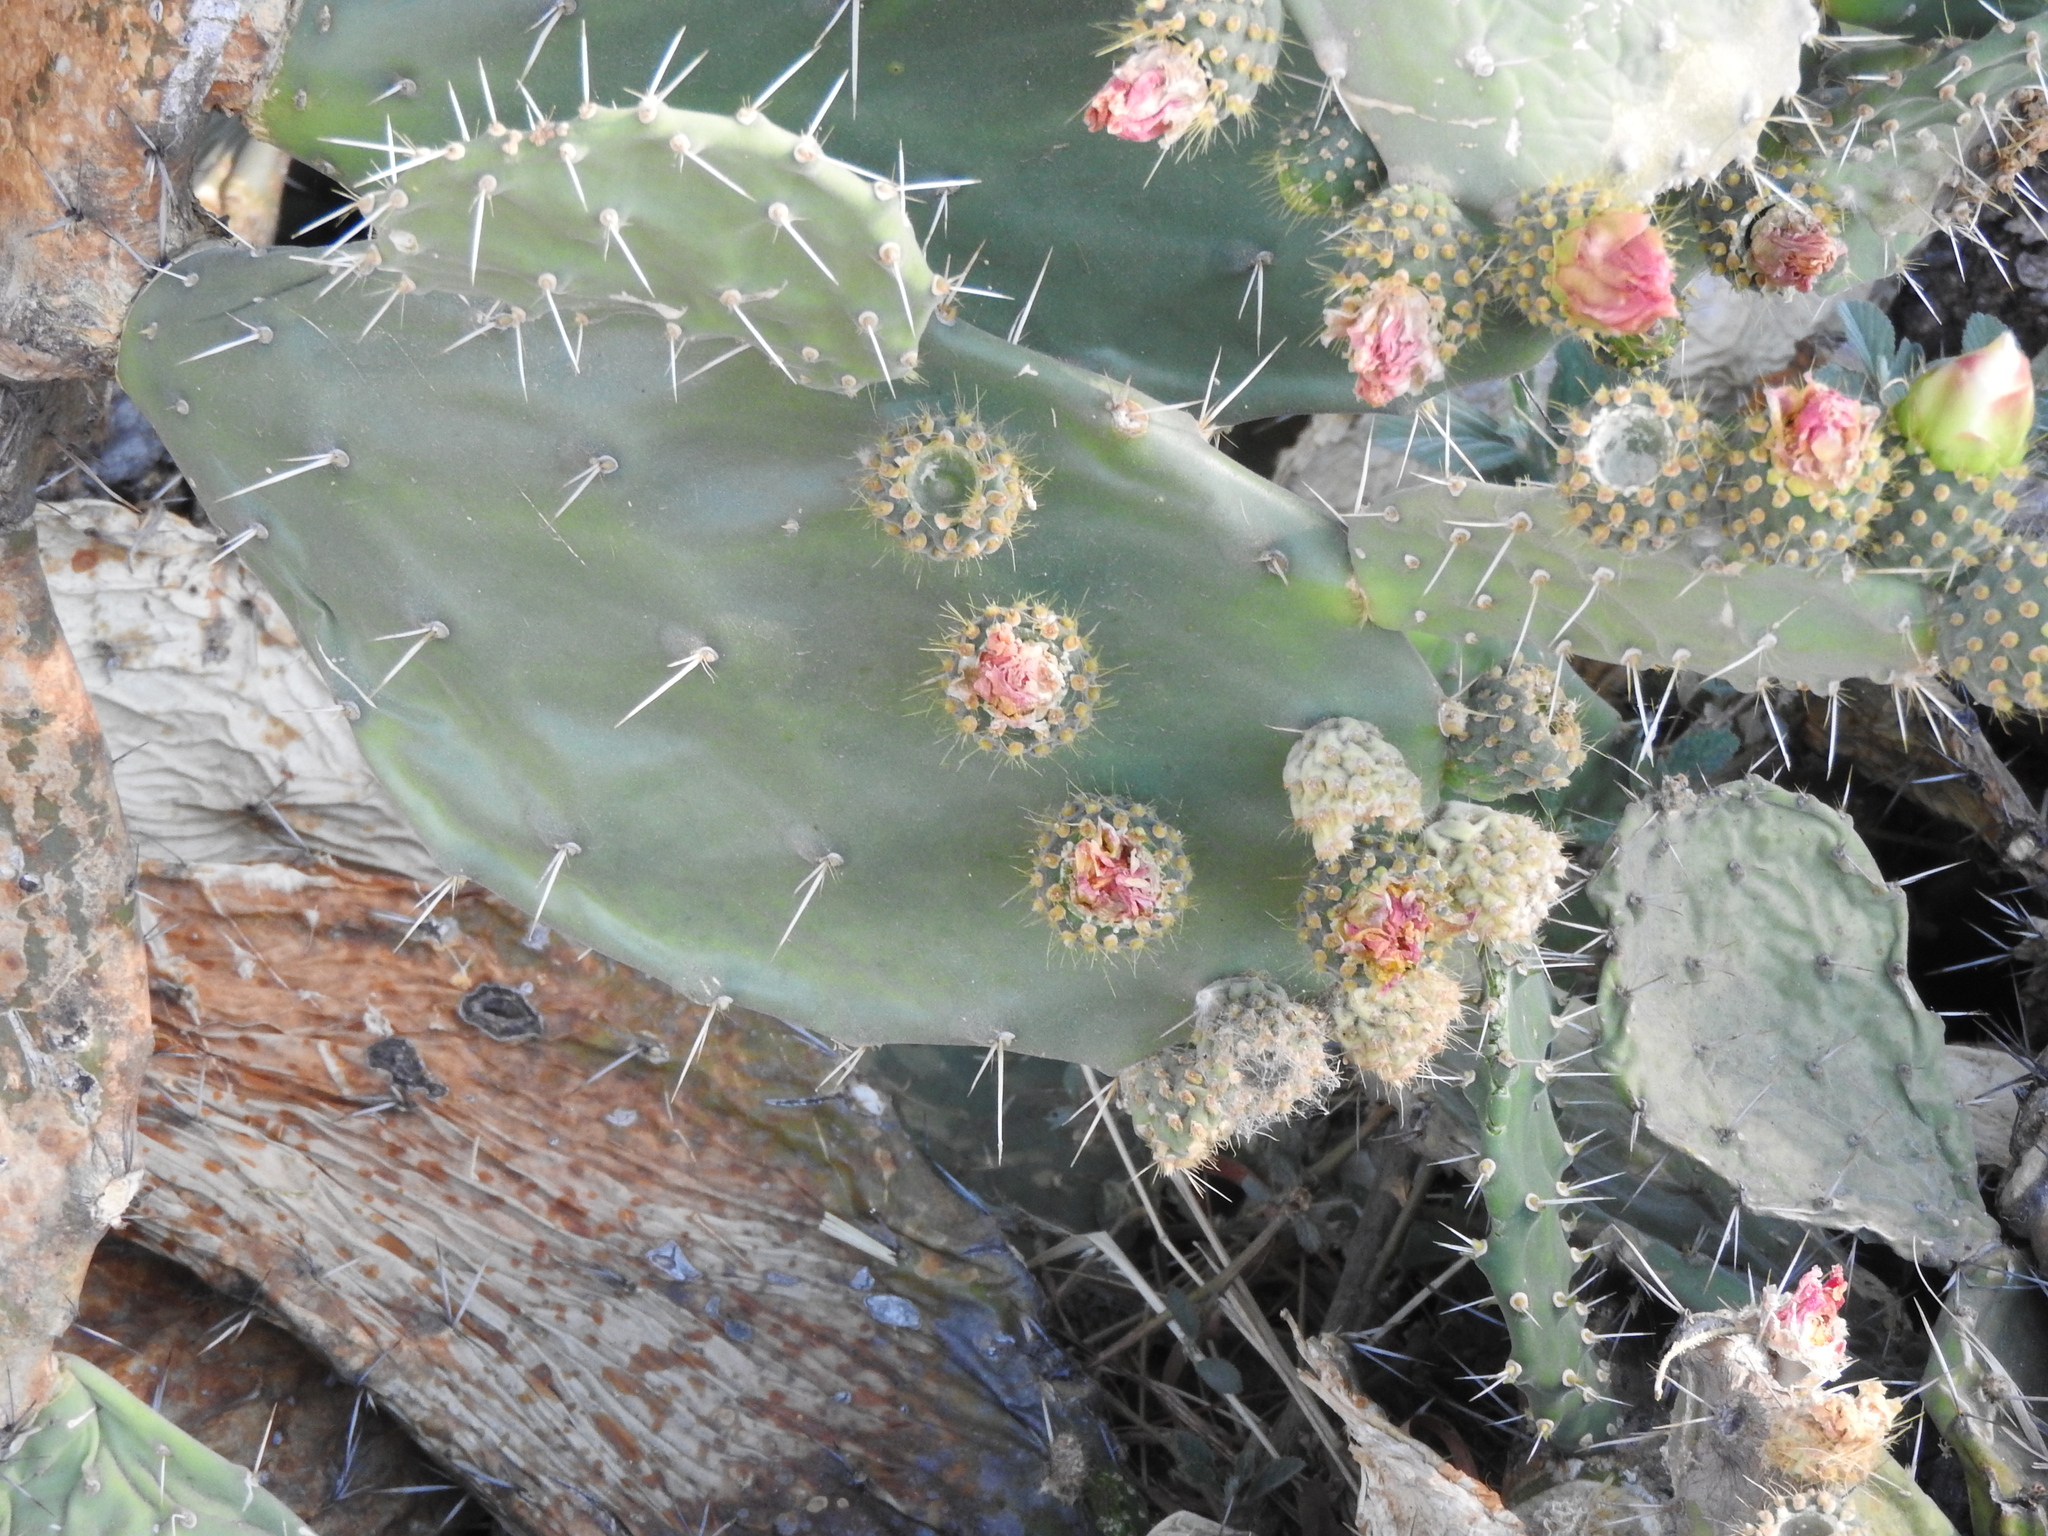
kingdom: Plantae
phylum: Tracheophyta
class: Magnoliopsida
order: Caryophyllales
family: Cactaceae
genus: Opuntia
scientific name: Opuntia lasiacantha
